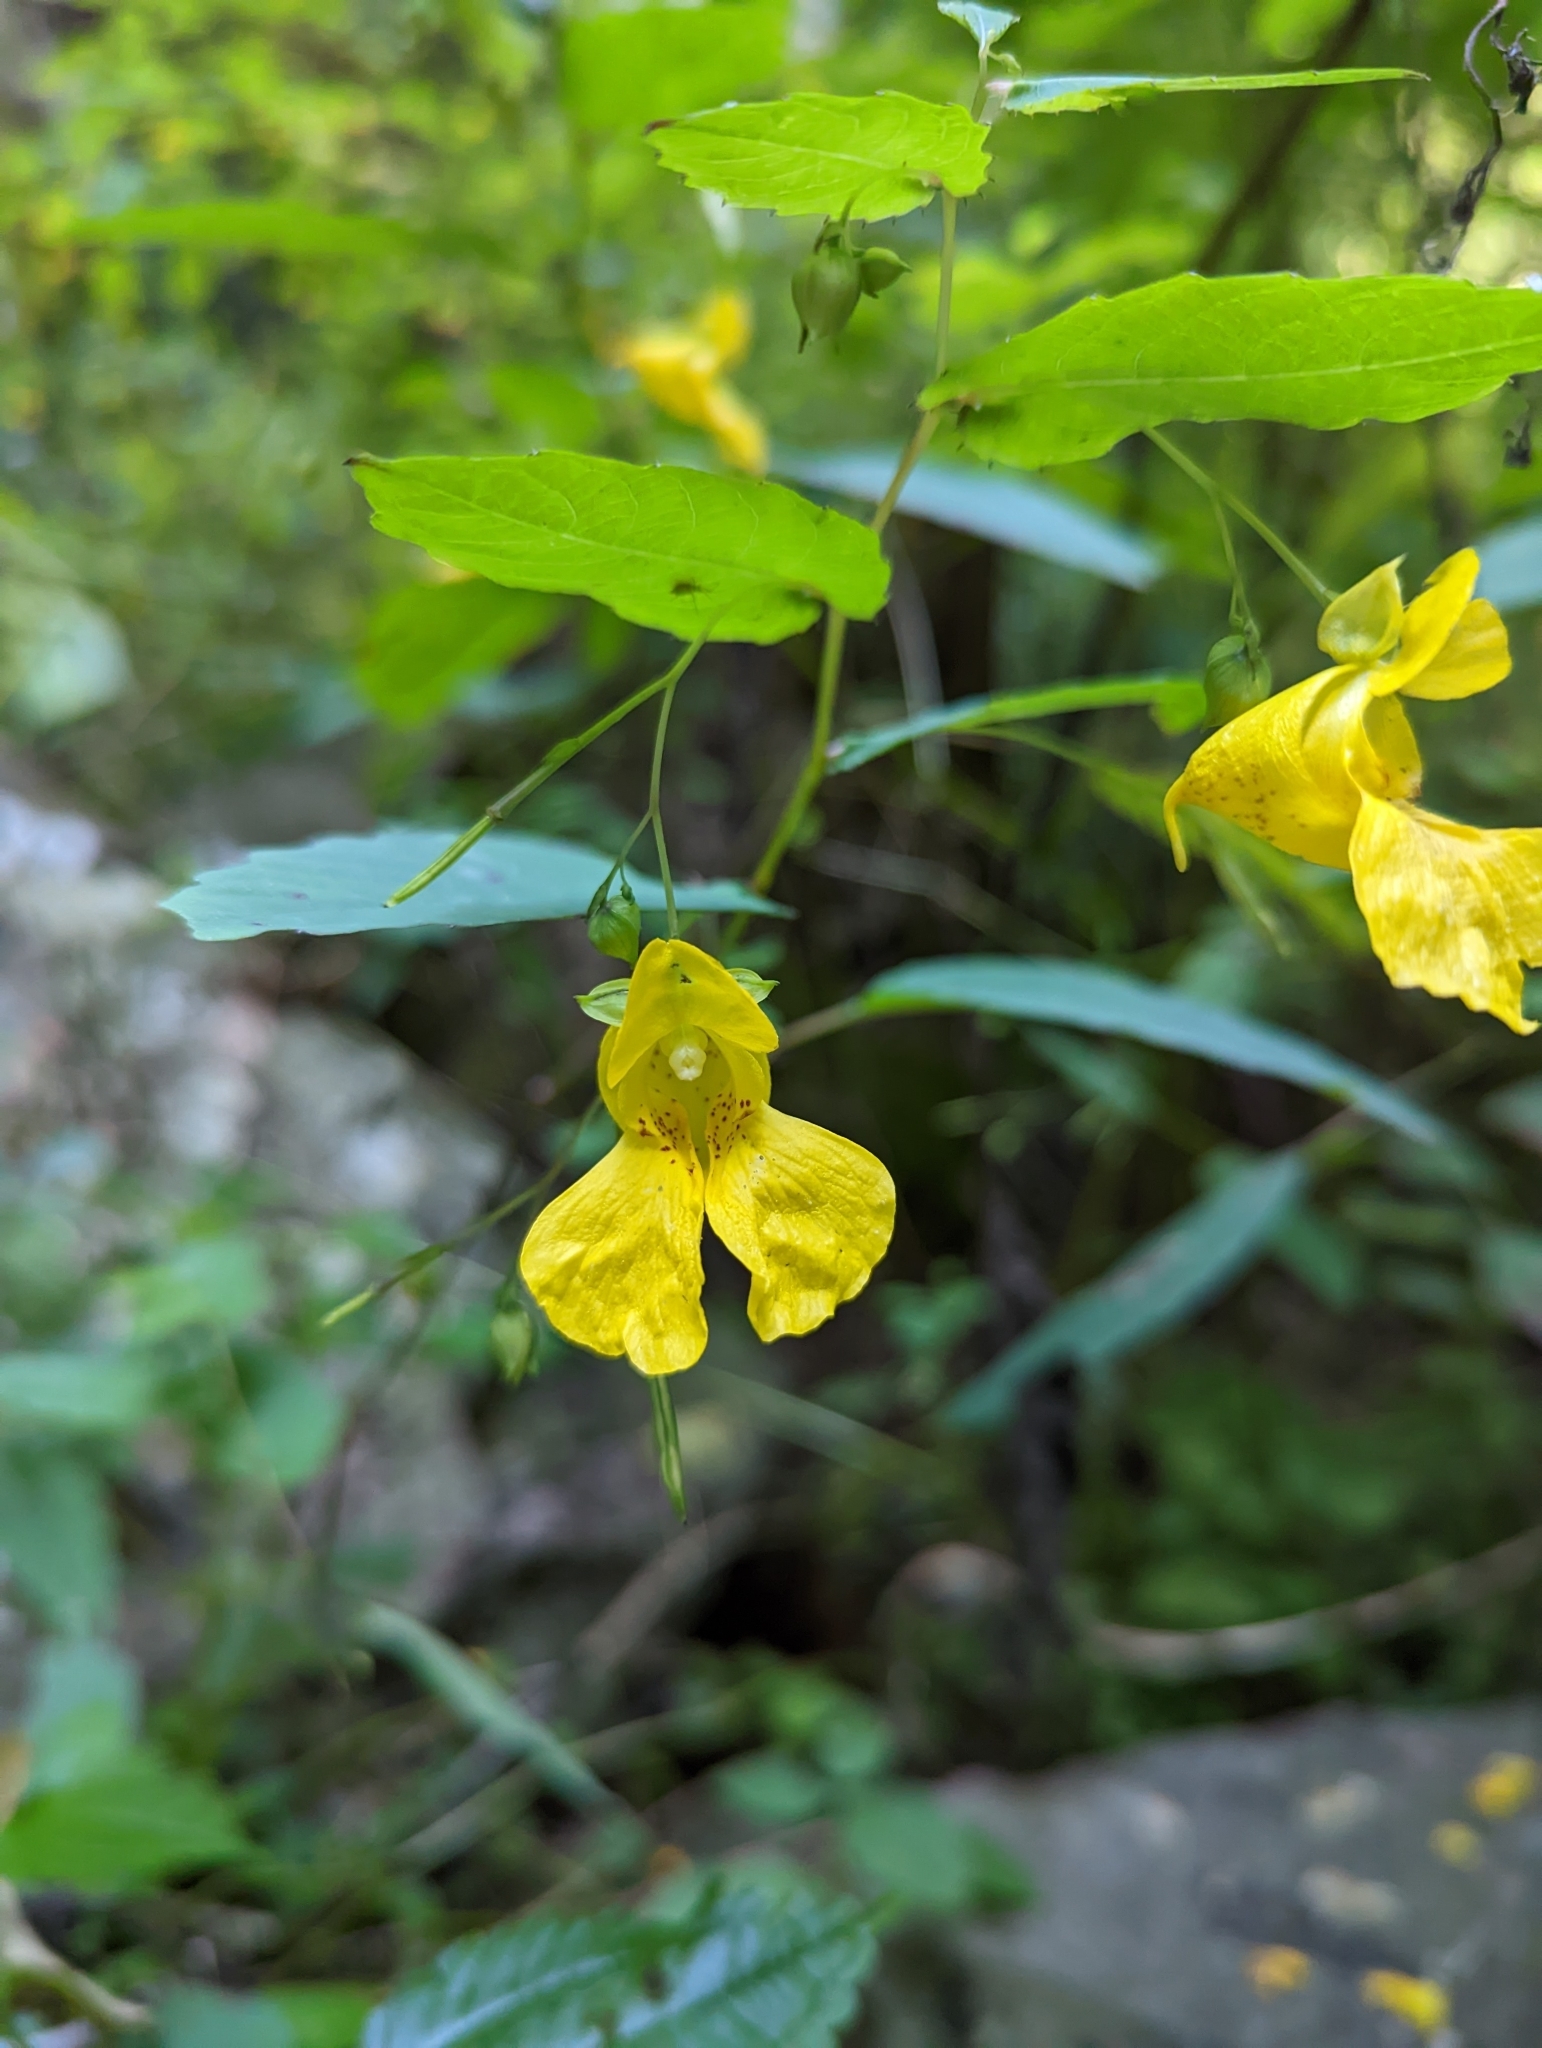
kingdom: Plantae
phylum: Tracheophyta
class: Magnoliopsida
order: Ericales
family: Balsaminaceae
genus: Impatiens
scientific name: Impatiens pallida
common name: Pale snapweed
